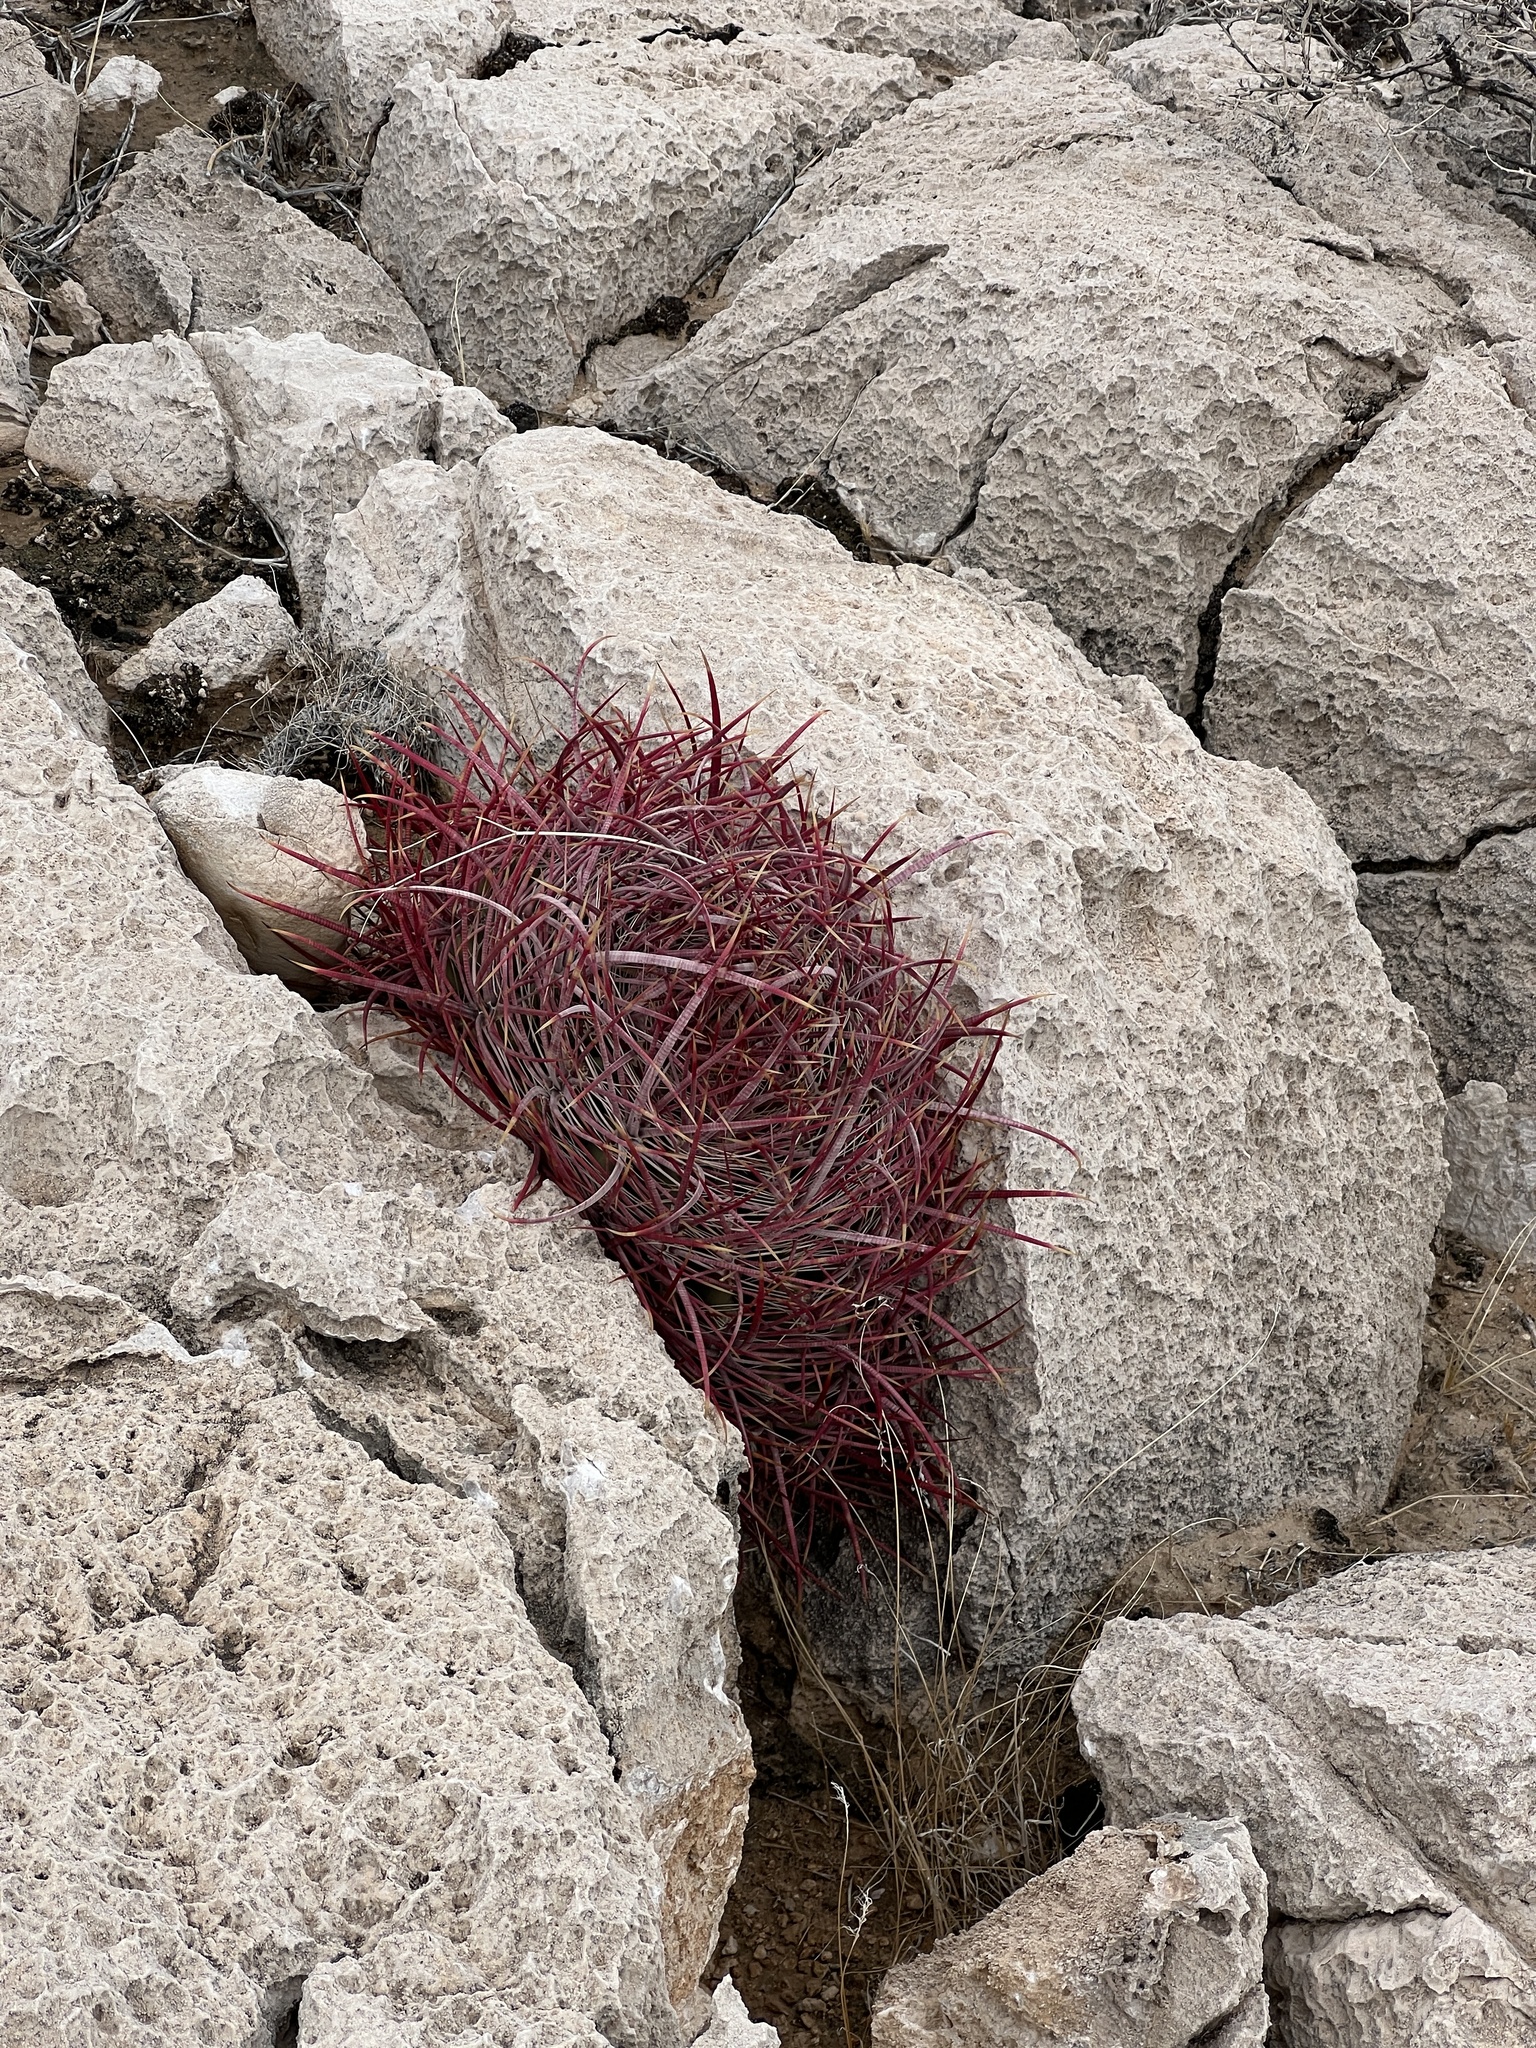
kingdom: Plantae
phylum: Tracheophyta
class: Magnoliopsida
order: Caryophyllales
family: Cactaceae
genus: Ferocactus
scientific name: Ferocactus cylindraceus
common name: California barrel cactus
